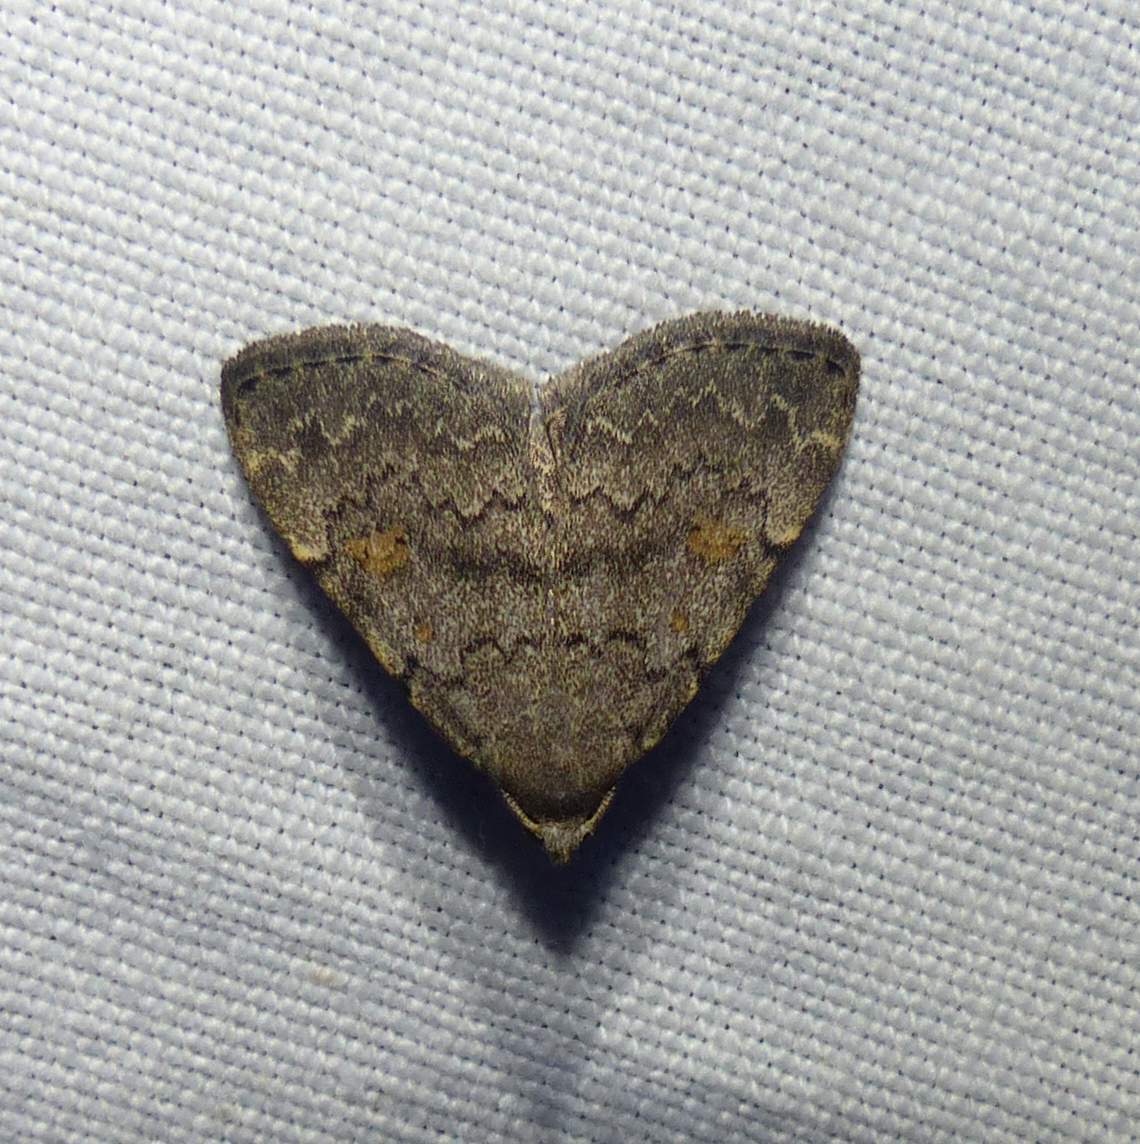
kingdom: Animalia
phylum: Arthropoda
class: Insecta
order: Lepidoptera
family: Erebidae
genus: Idia
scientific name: Idia aemula
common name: Common idia moth
